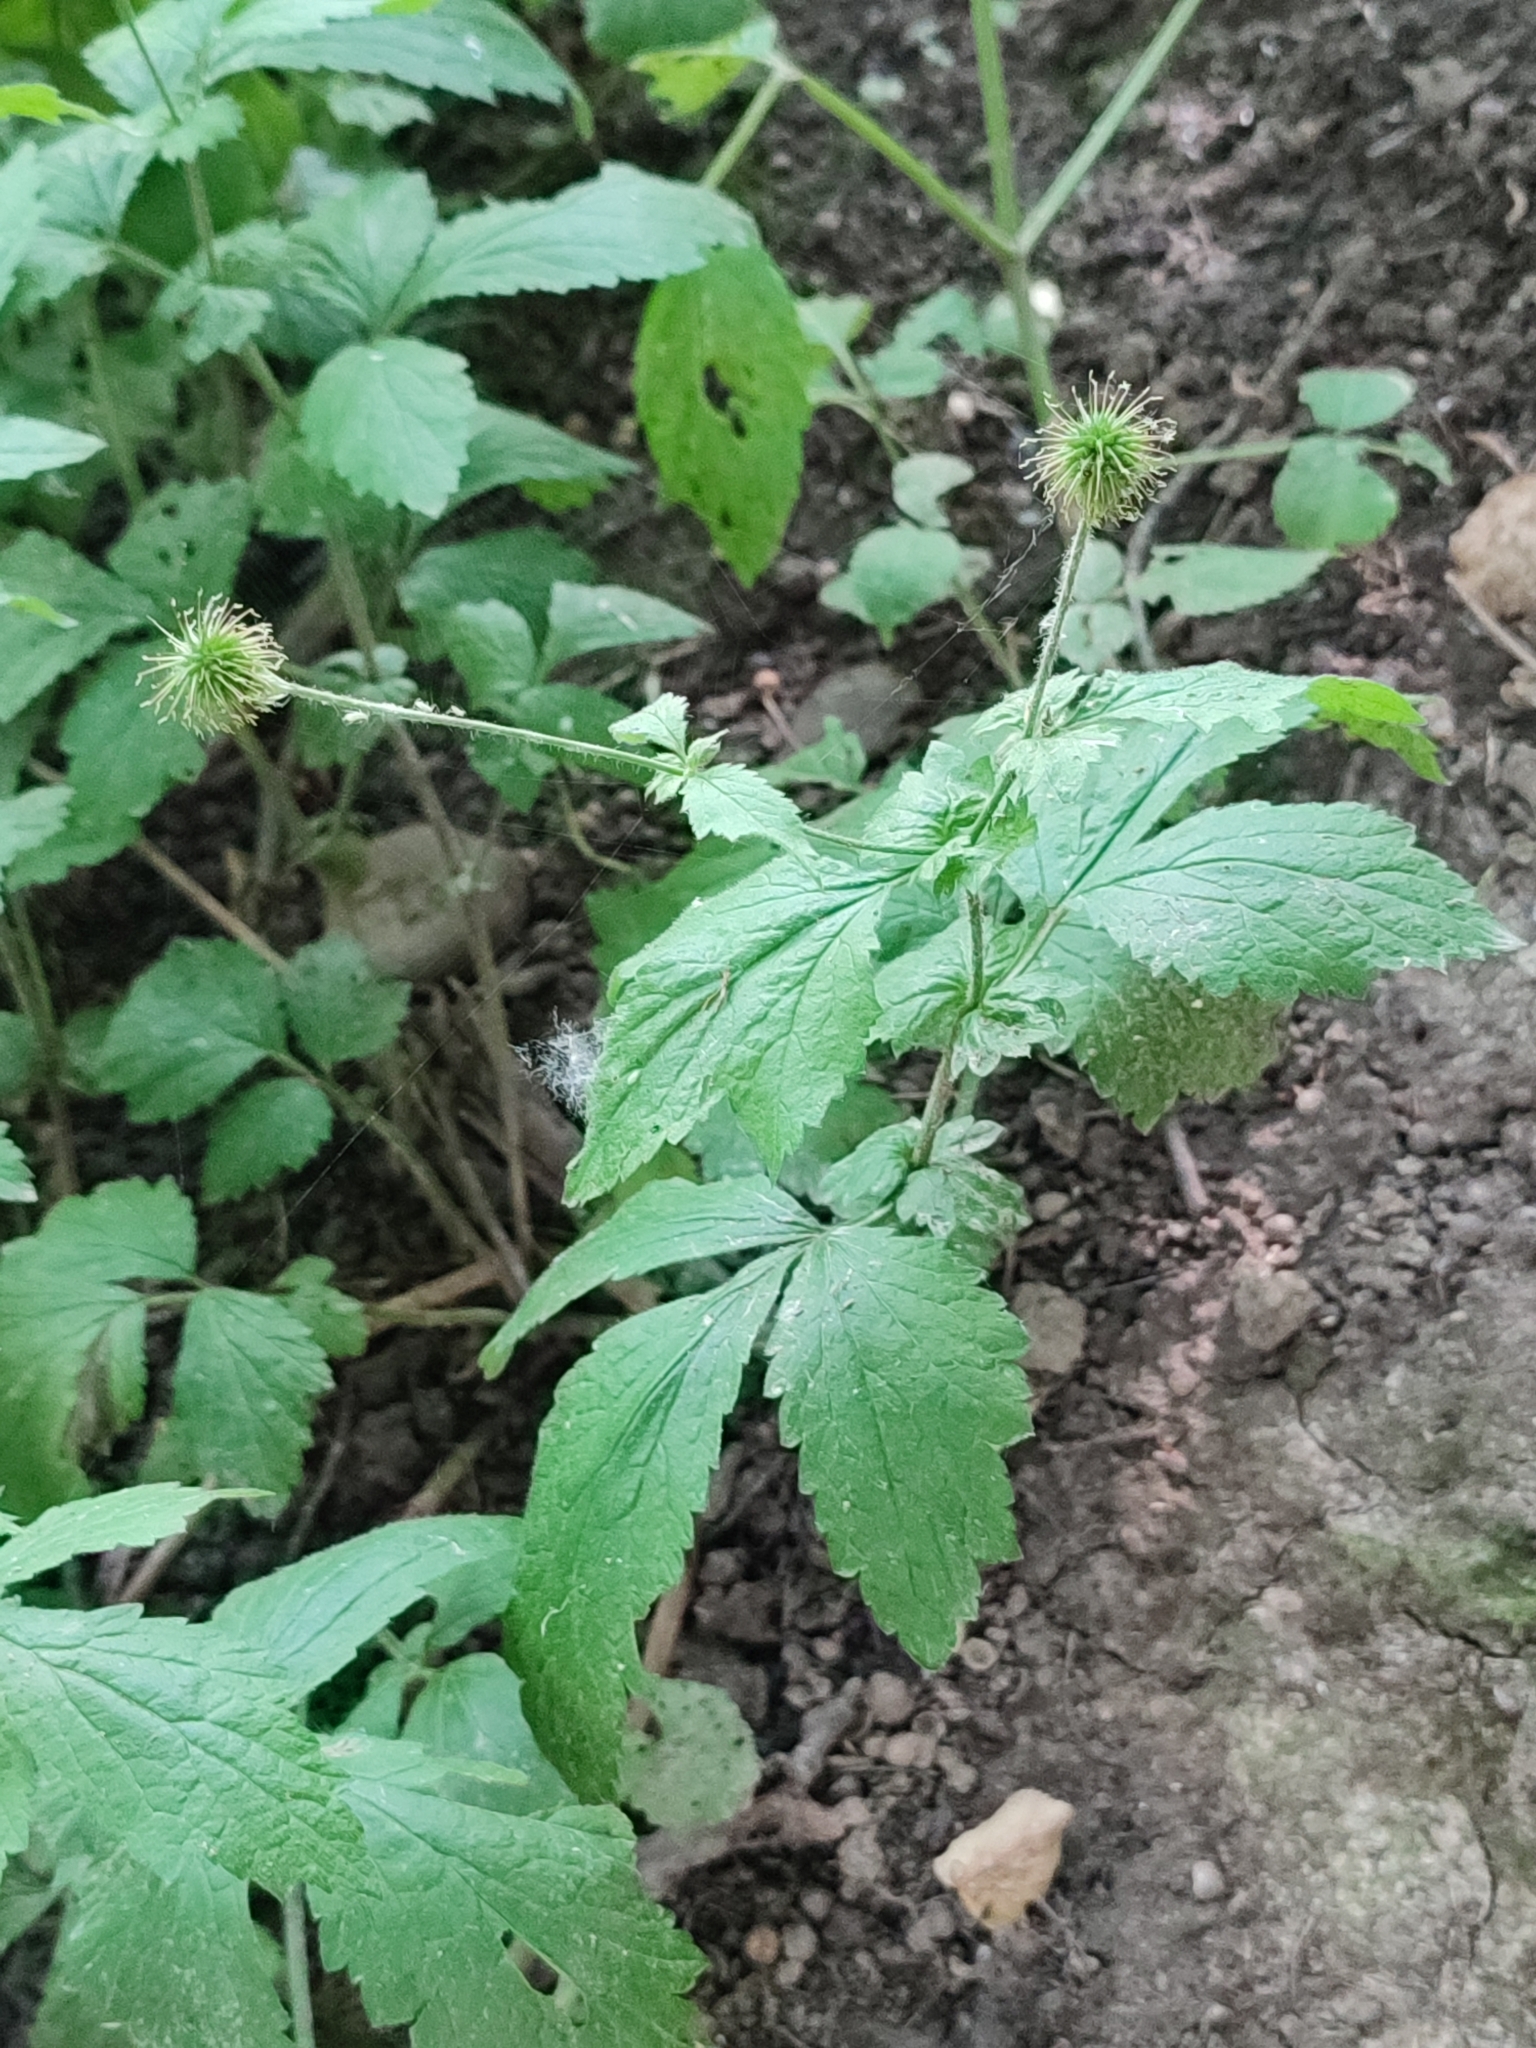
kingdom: Plantae
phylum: Tracheophyta
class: Magnoliopsida
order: Rosales
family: Rosaceae
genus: Geum
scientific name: Geum urbanum
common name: Wood avens
